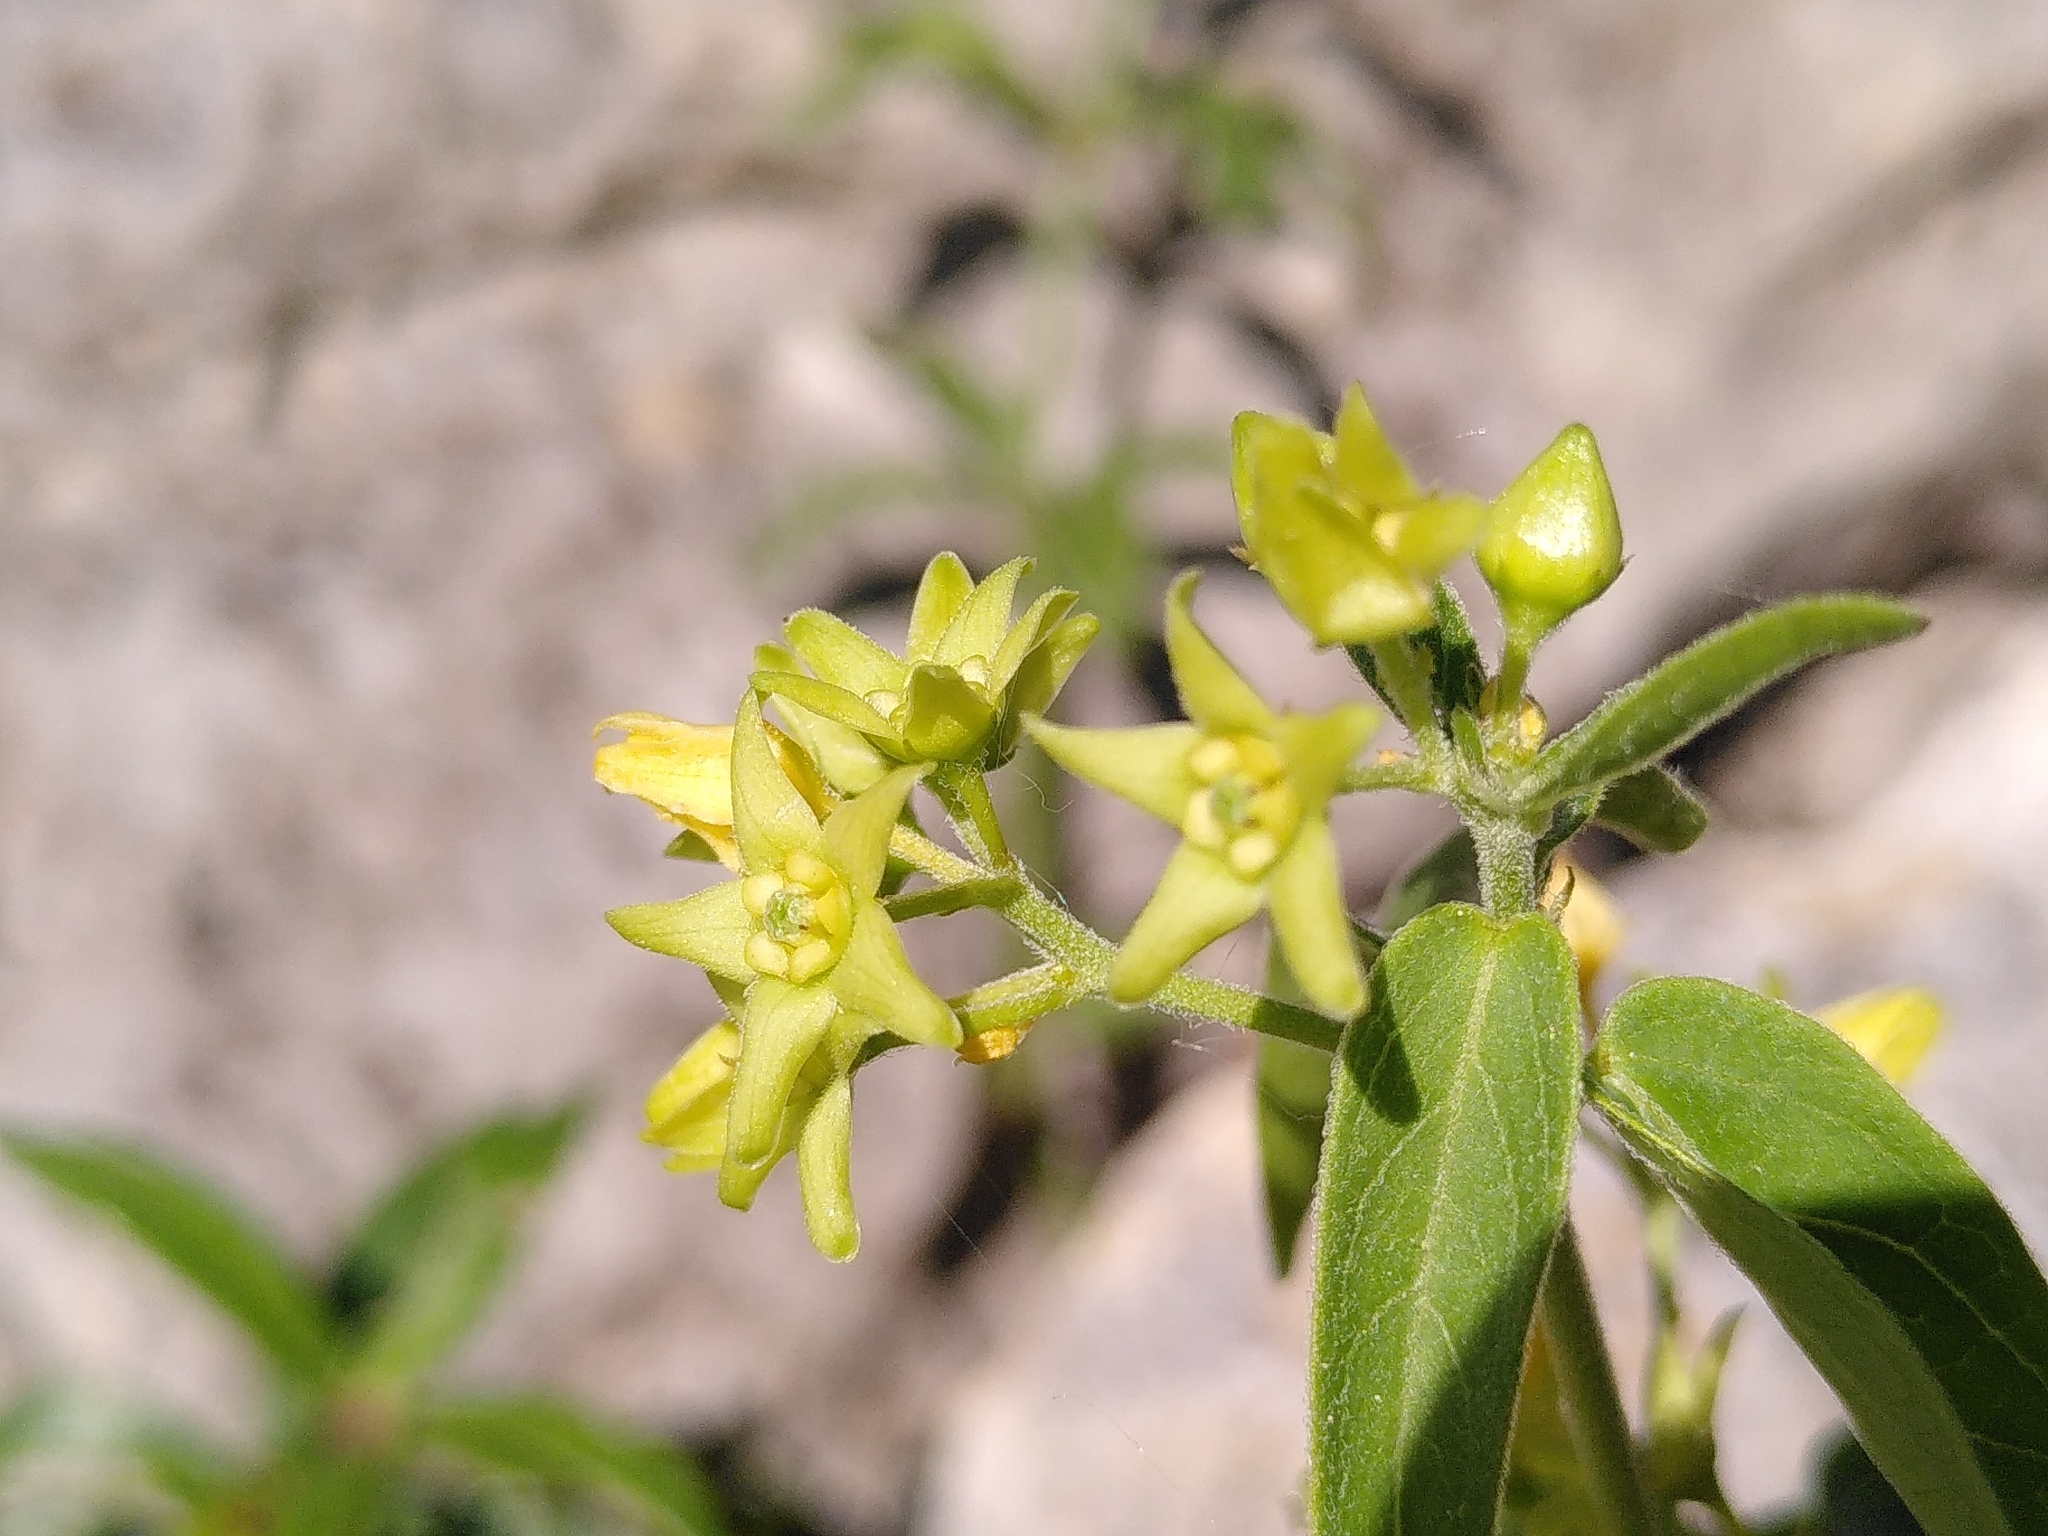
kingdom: Plantae
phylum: Tracheophyta
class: Magnoliopsida
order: Gentianales
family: Apocynaceae
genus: Vincetoxicum
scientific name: Vincetoxicum hirundinaria
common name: White swallowwort
